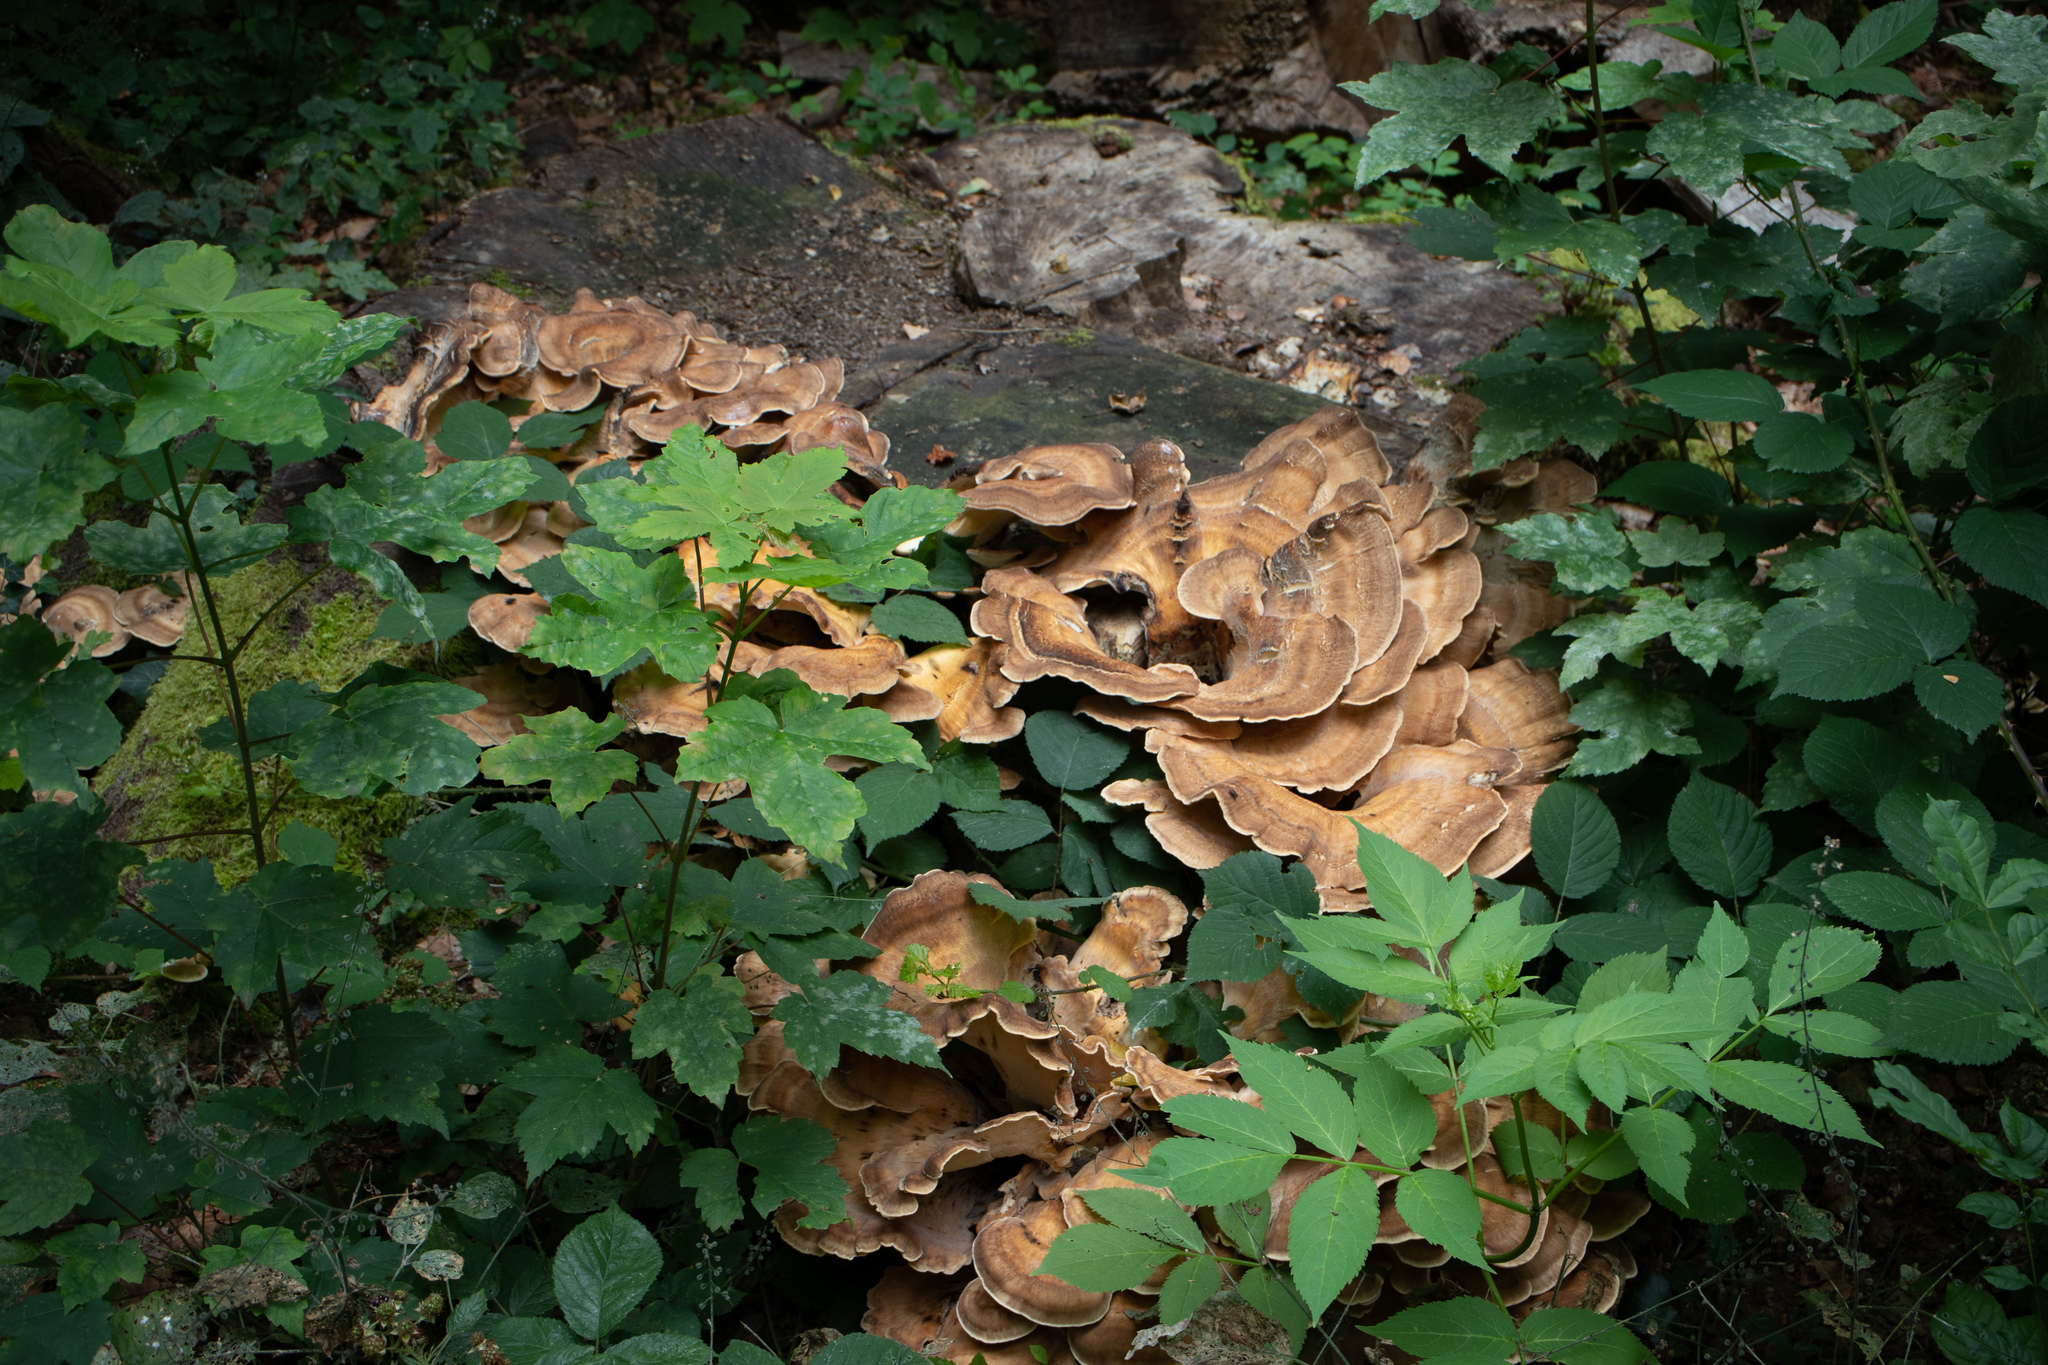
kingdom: Fungi
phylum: Basidiomycota
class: Agaricomycetes
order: Polyporales
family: Meripilaceae
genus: Meripilus
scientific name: Meripilus giganteus
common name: Giant polypore
